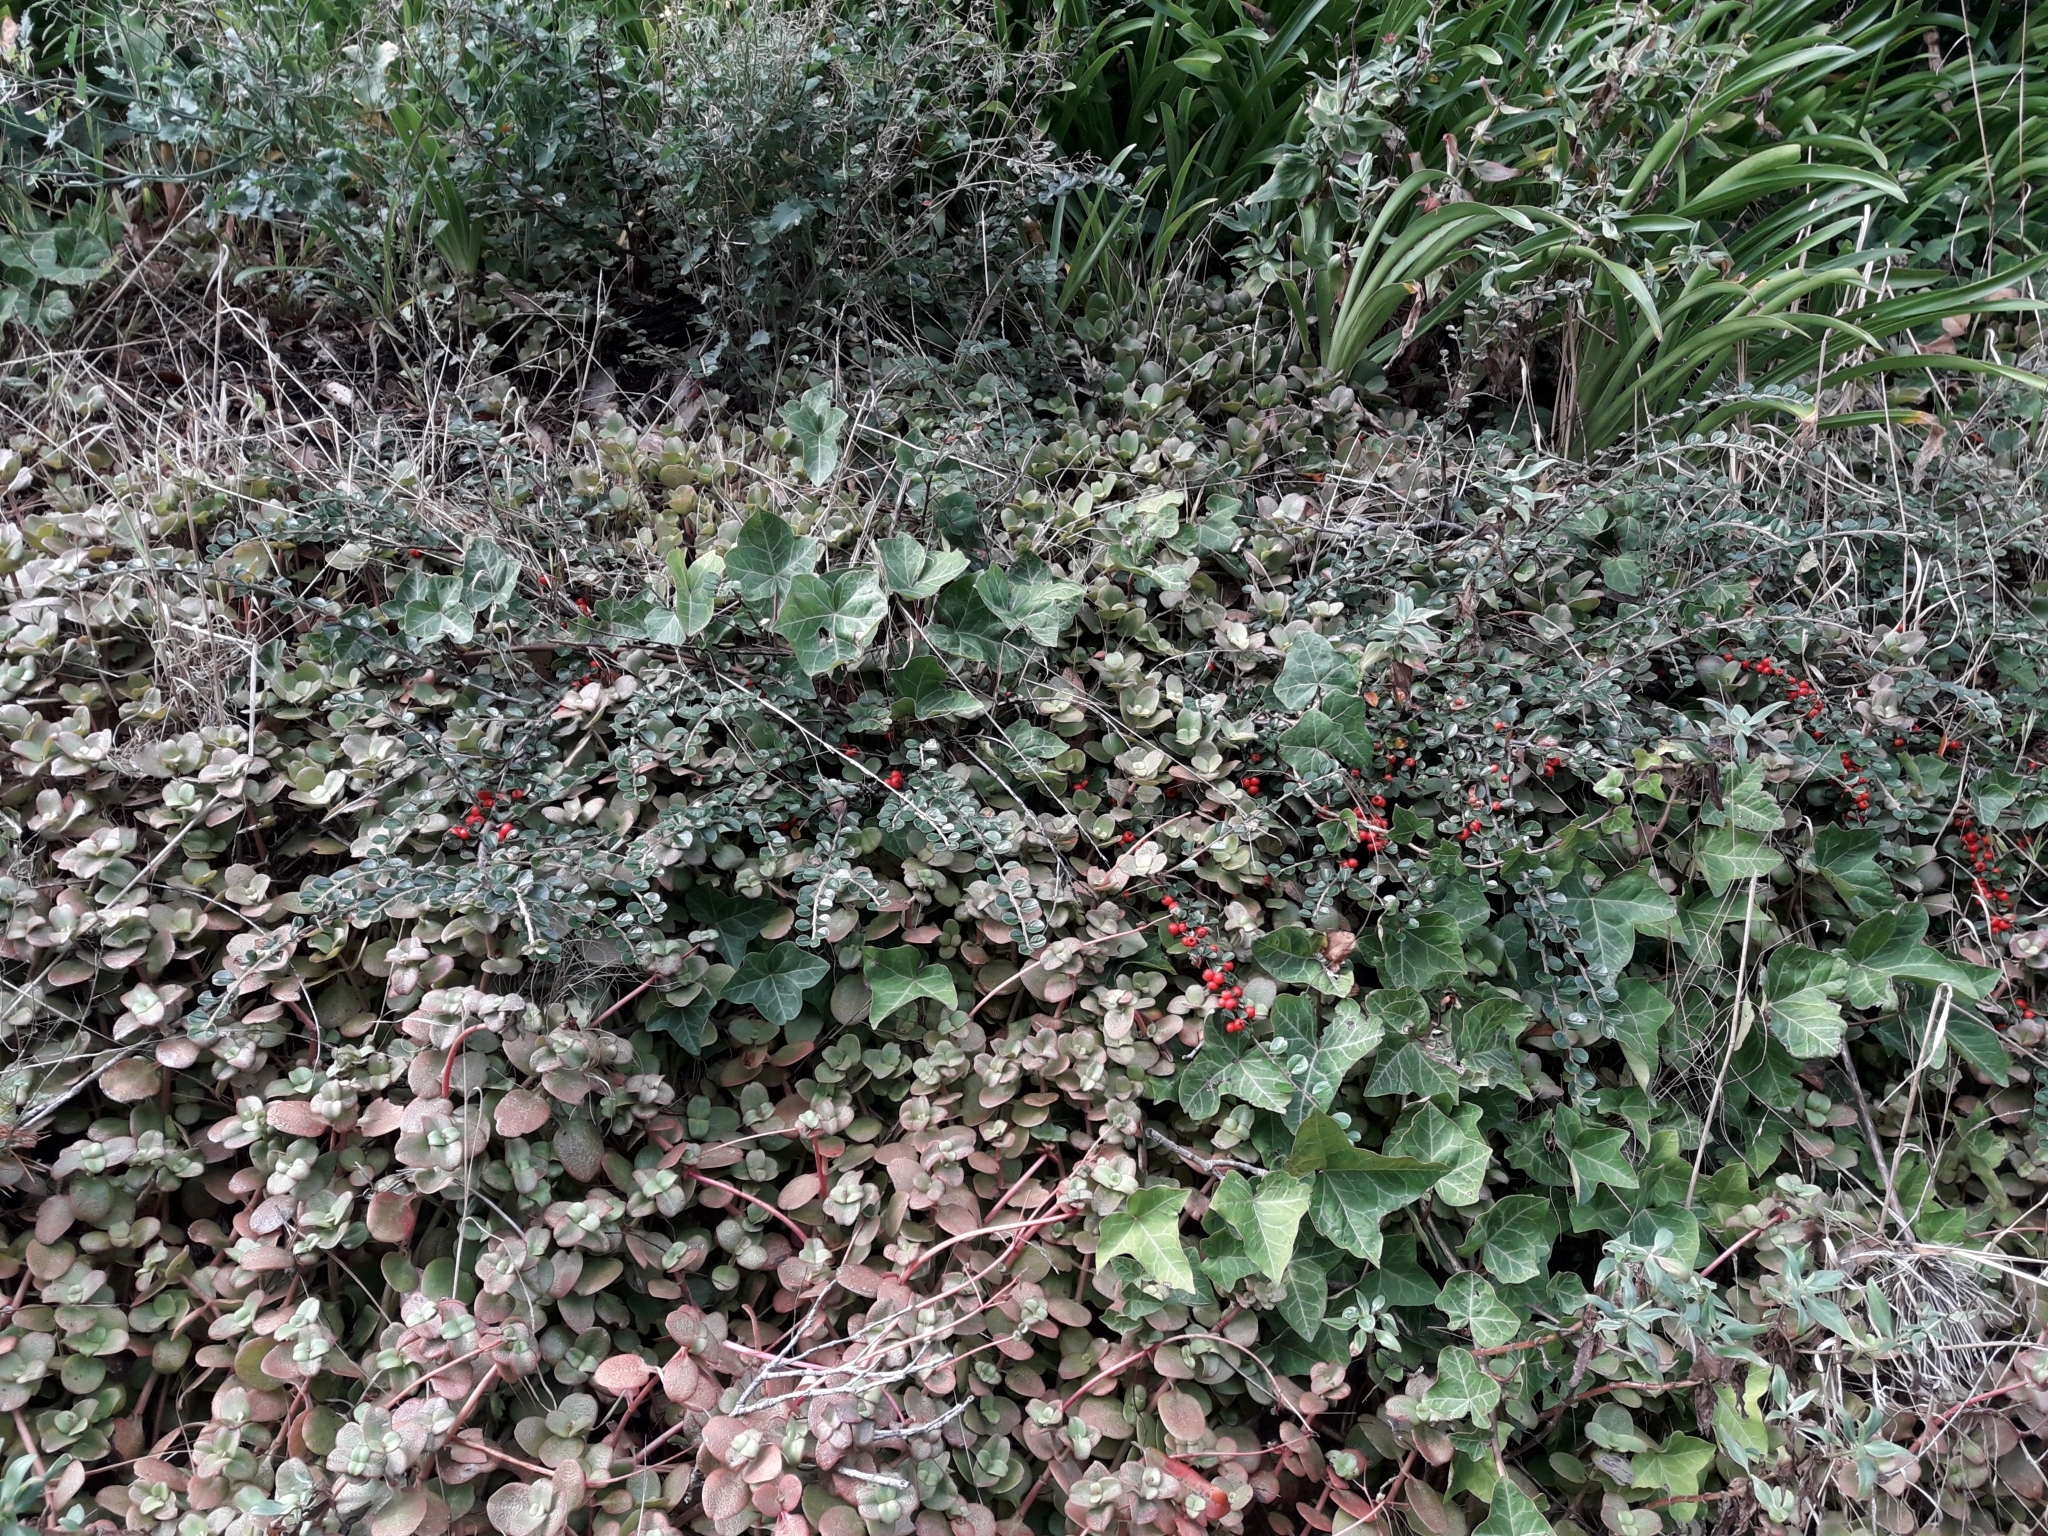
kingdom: Plantae
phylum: Tracheophyta
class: Magnoliopsida
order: Rosales
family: Rosaceae
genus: Cotoneaster
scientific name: Cotoneaster hjelmqvistii
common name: Hjelmqvist's cotoneaster
